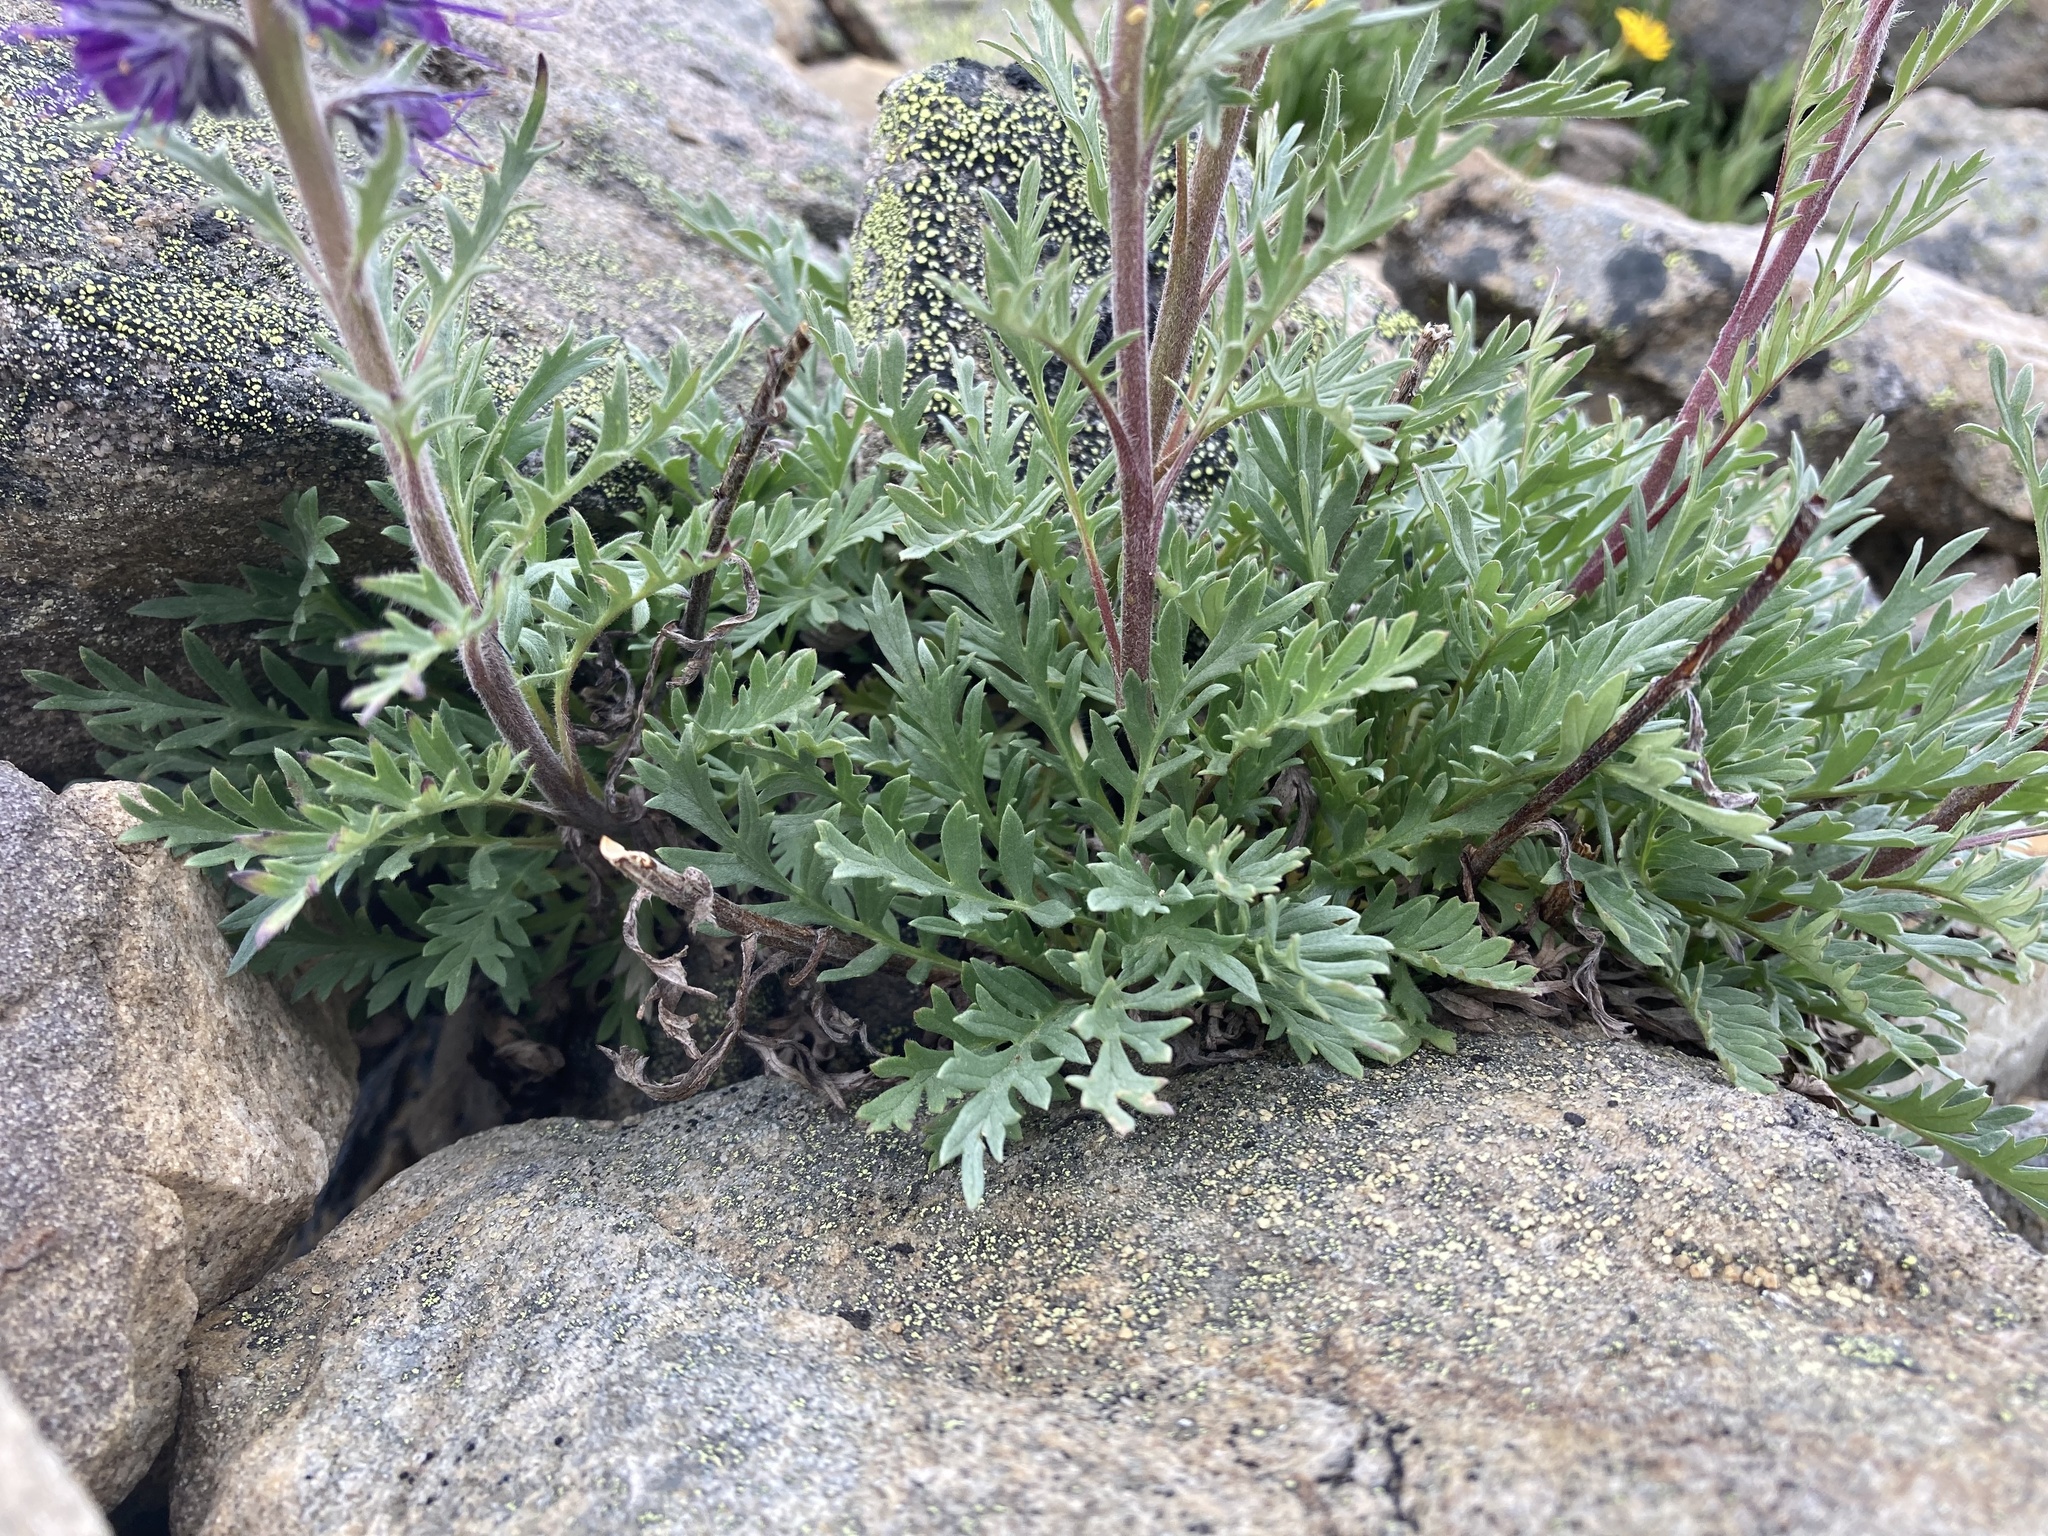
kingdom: Plantae
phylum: Tracheophyta
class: Magnoliopsida
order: Boraginales
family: Hydrophyllaceae
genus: Phacelia
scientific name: Phacelia sericea
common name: Silky phacelia
